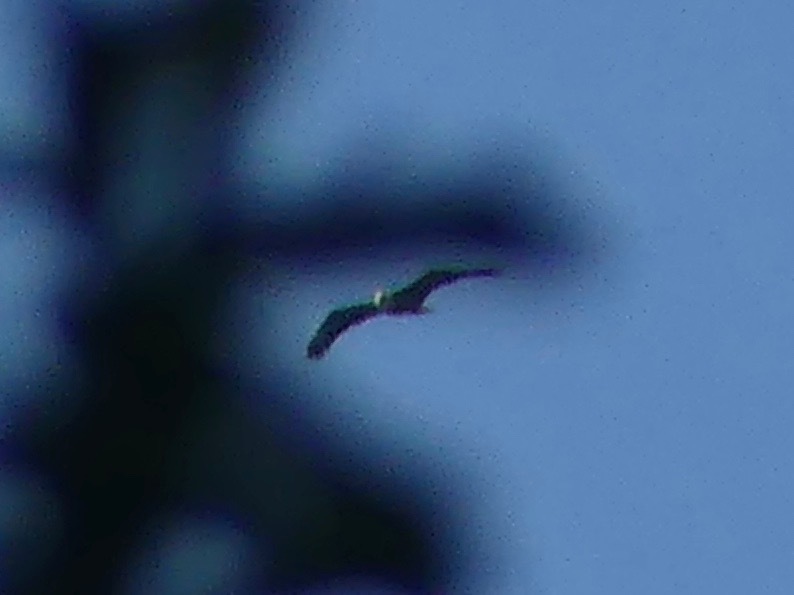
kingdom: Animalia
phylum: Chordata
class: Aves
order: Accipitriformes
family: Accipitridae
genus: Haliaeetus
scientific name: Haliaeetus leucocephalus
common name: Bald eagle
